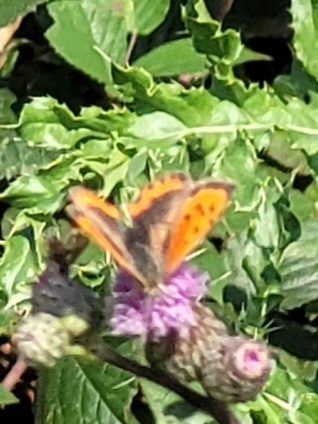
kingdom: Animalia
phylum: Arthropoda
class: Insecta
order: Lepidoptera
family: Lycaenidae
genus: Lycaena
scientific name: Lycaena phlaeas
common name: Small copper
